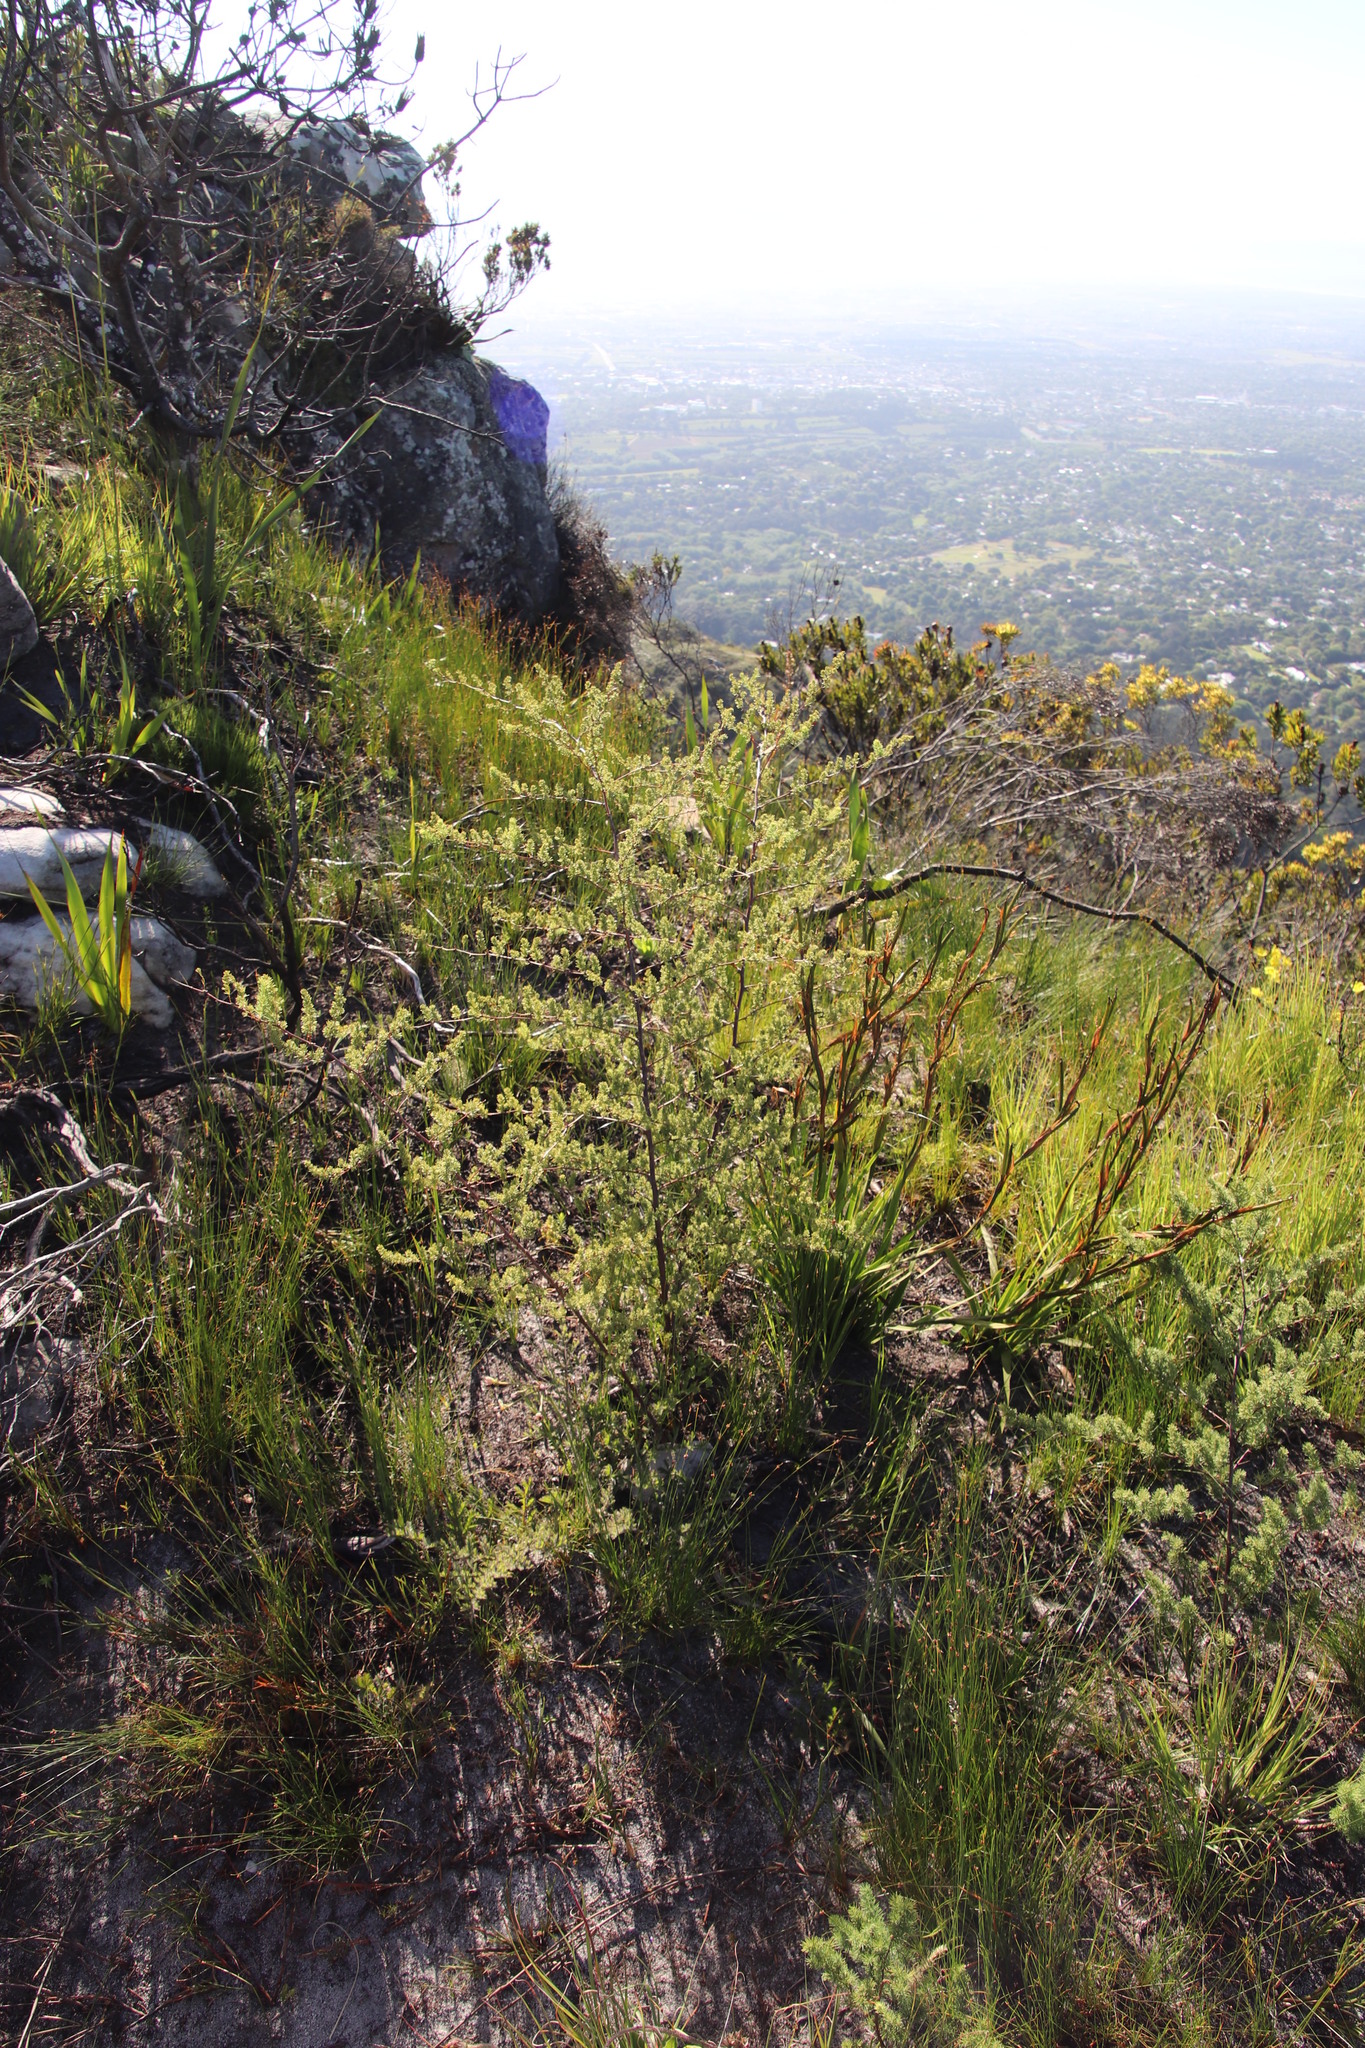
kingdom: Plantae
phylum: Tracheophyta
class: Liliopsida
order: Asparagales
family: Asparagaceae
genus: Asparagus
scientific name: Asparagus rubicundus
